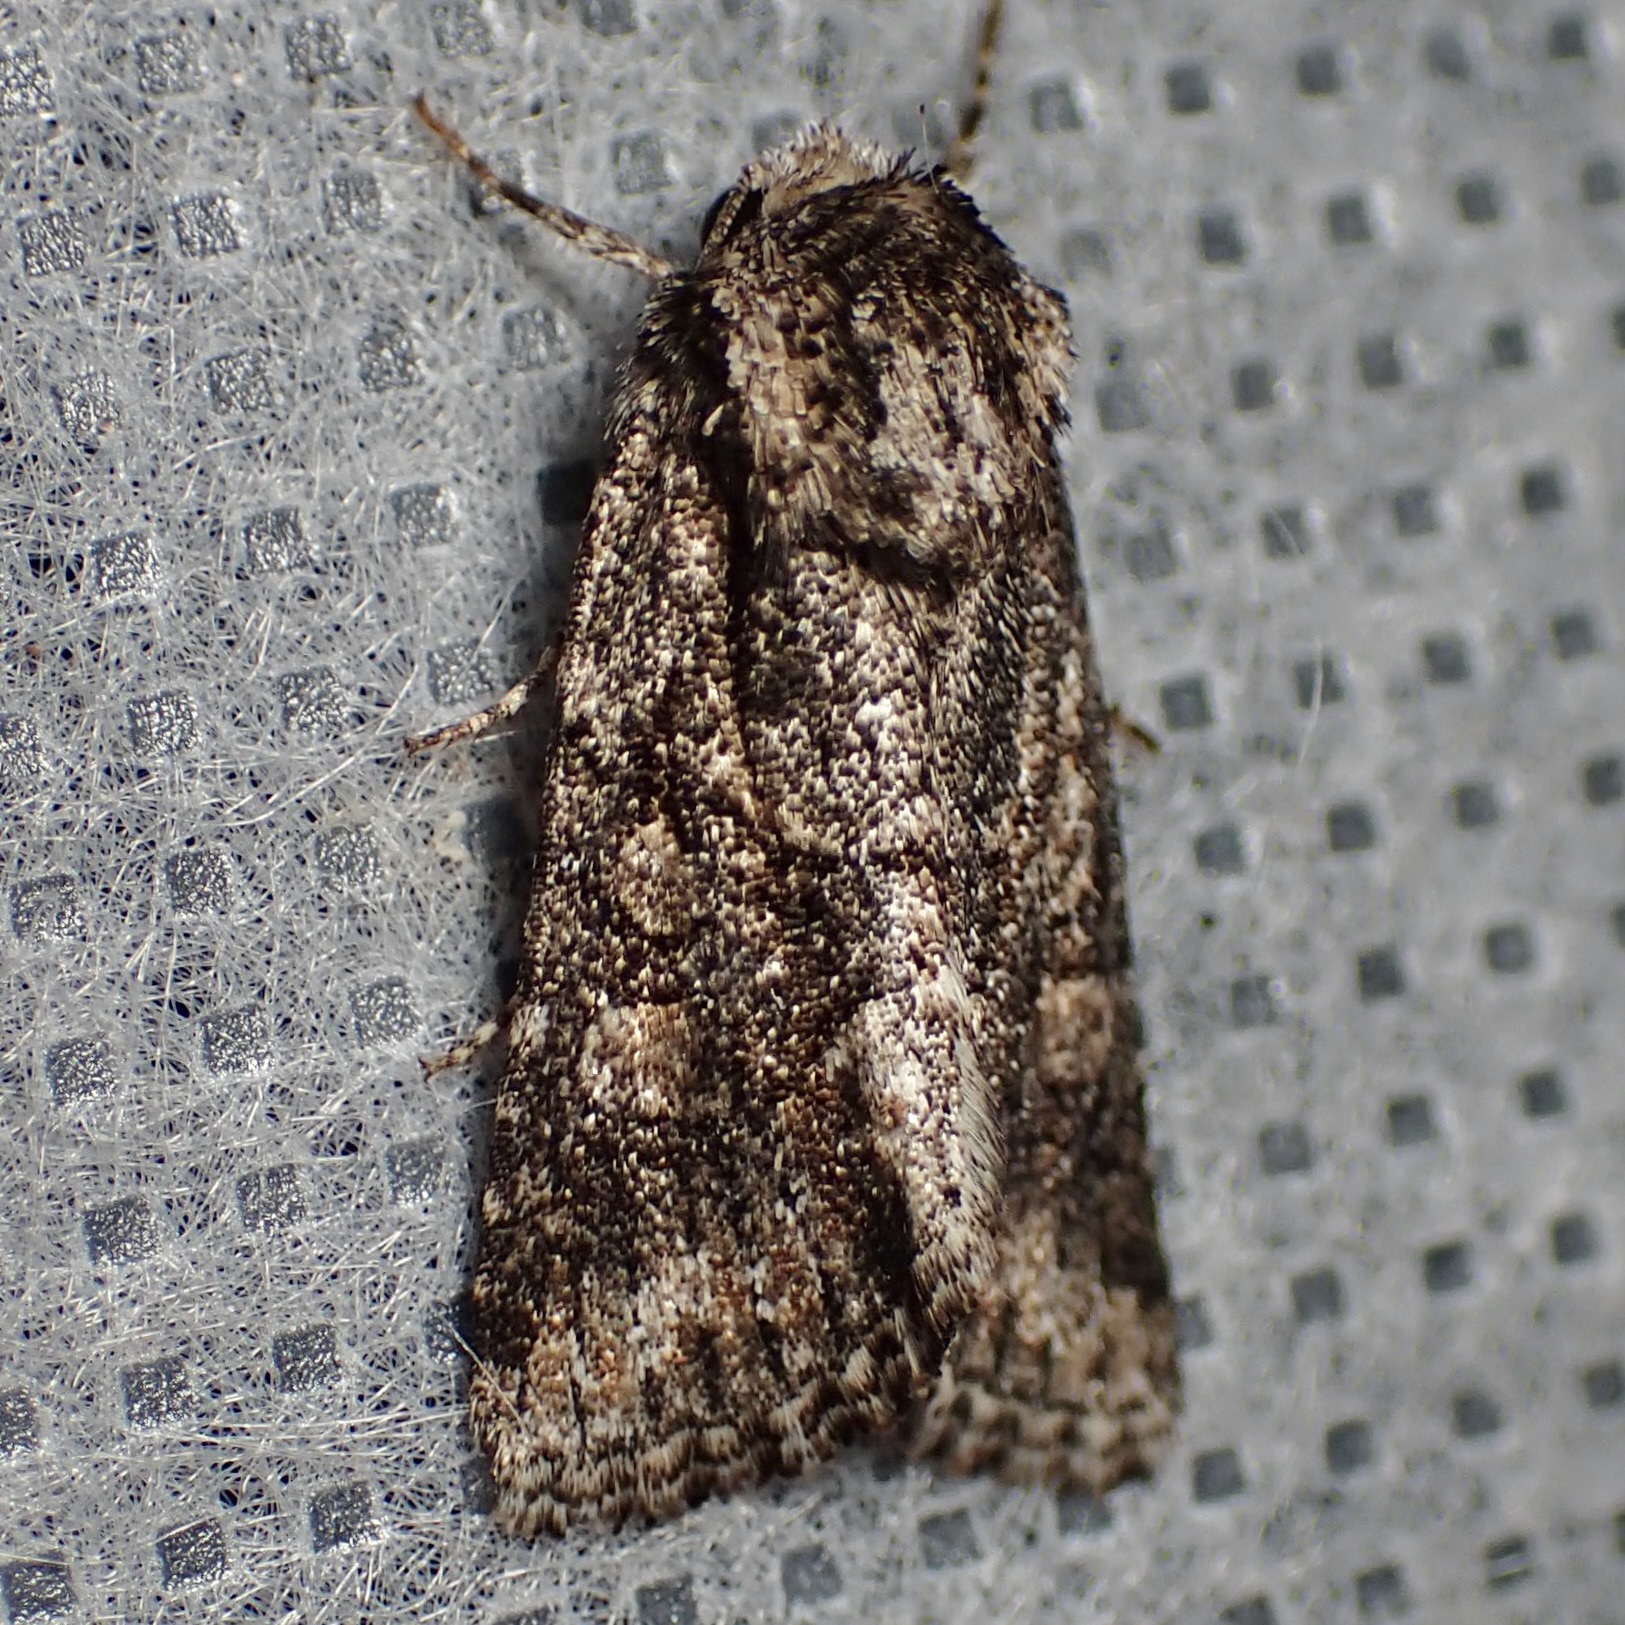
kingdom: Animalia
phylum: Arthropoda
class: Insecta
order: Lepidoptera
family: Noctuidae
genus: Lacinipolia
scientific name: Lacinipolia martini
